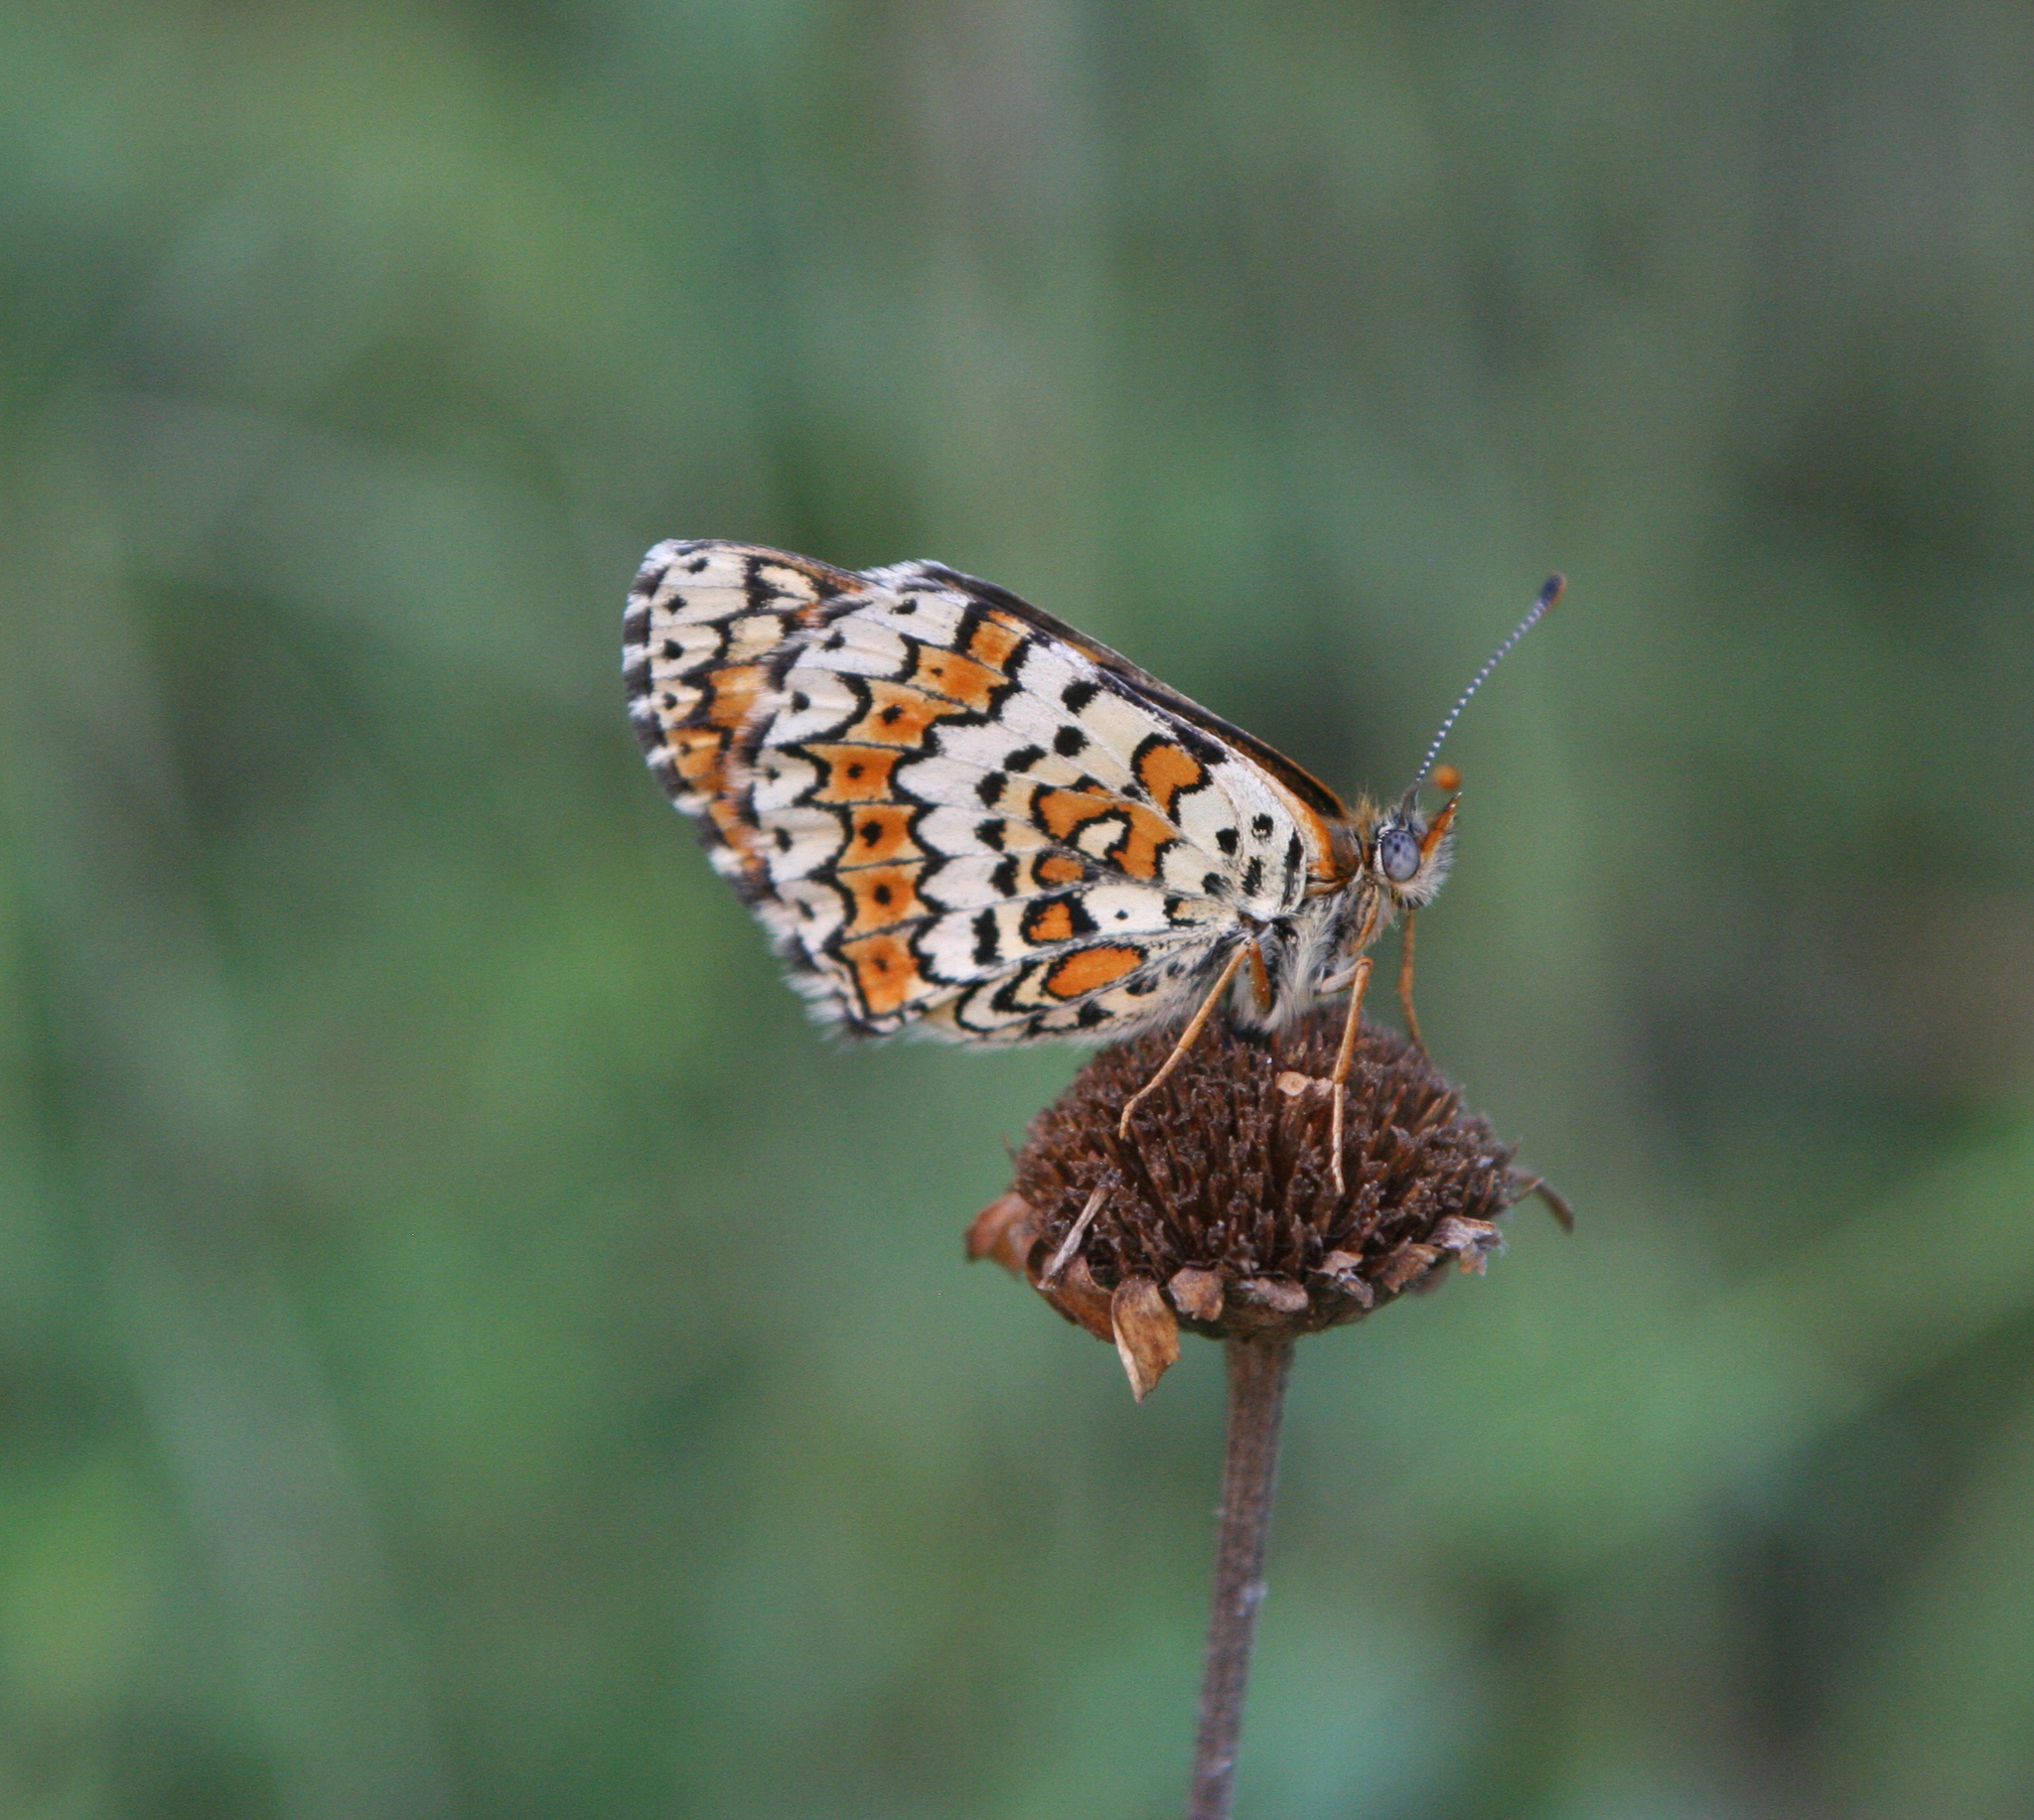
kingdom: Animalia
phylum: Arthropoda
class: Insecta
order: Lepidoptera
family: Nymphalidae
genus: Melitaea
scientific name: Melitaea cinxia
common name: Glanville fritillary
